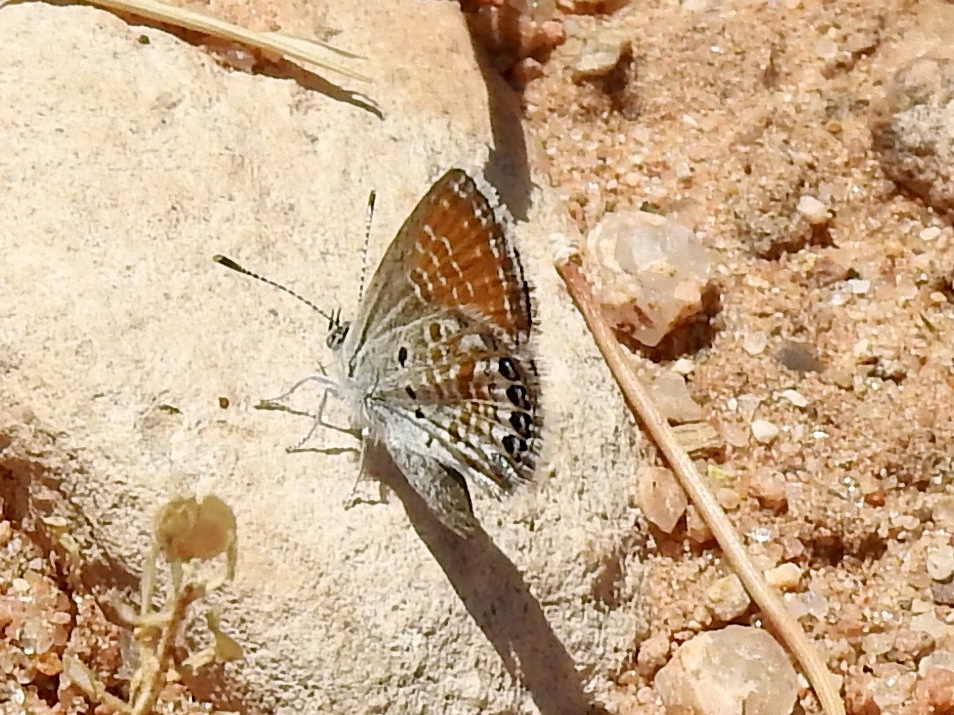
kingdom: Animalia
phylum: Arthropoda
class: Insecta
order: Lepidoptera
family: Lycaenidae
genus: Brephidium
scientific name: Brephidium exilis
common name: Pygmy blue
